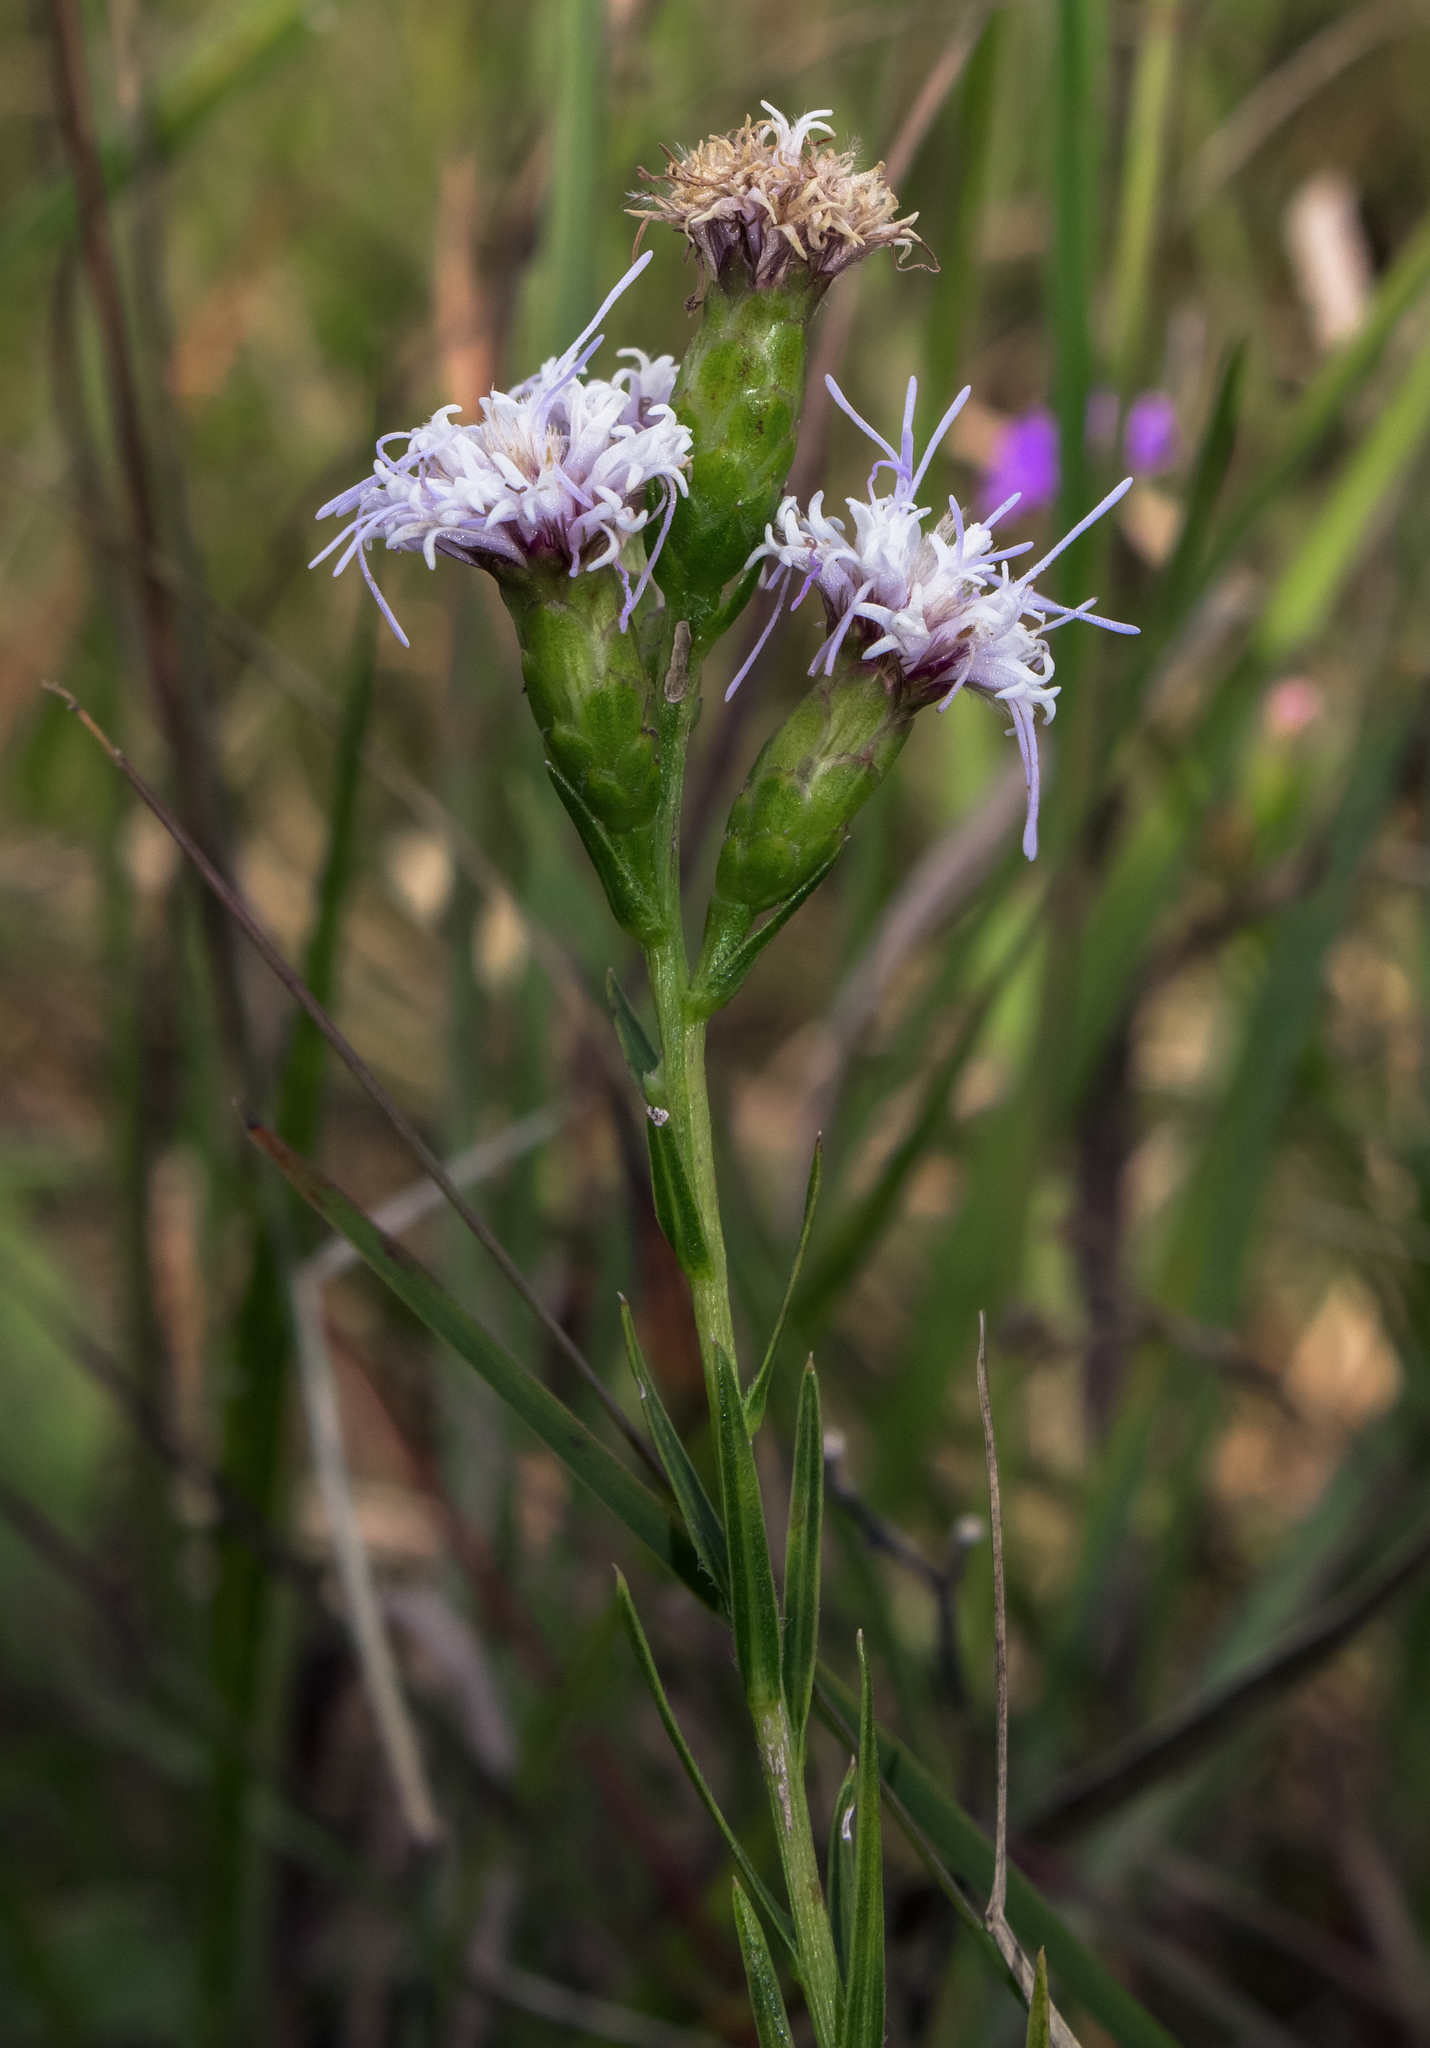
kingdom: Plantae
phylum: Tracheophyta
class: Magnoliopsida
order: Asterales
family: Asteraceae
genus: Liatris
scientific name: Liatris cylindracea
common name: Few-head blazingstar
